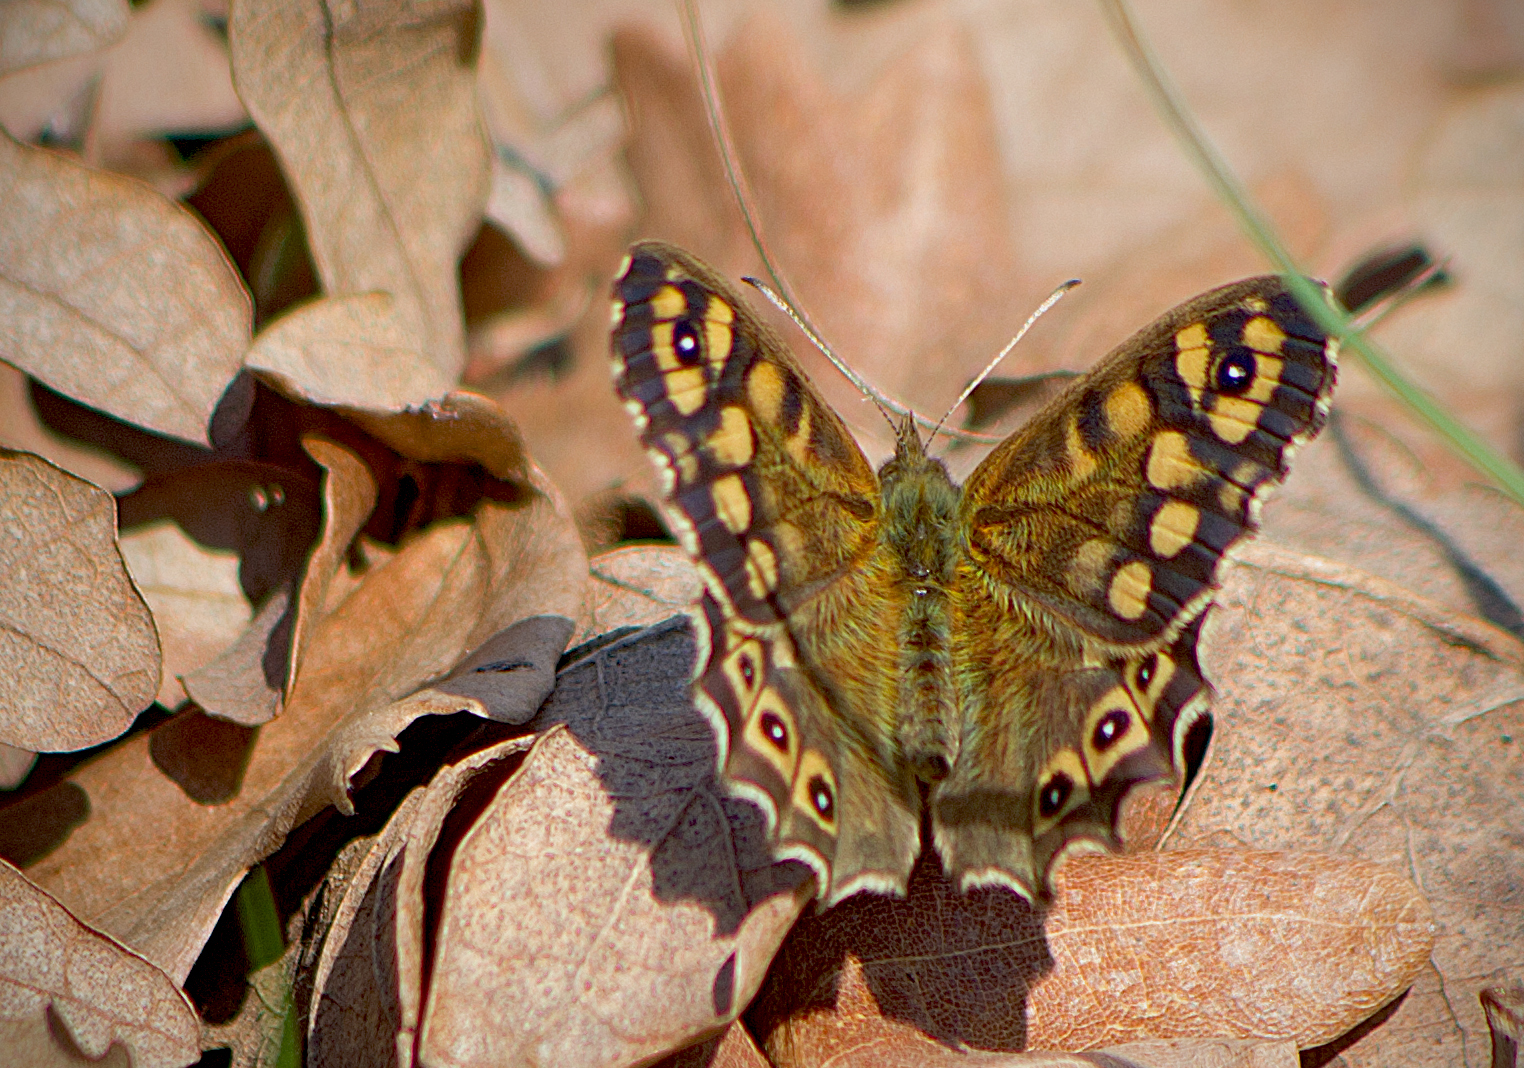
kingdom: Animalia
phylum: Arthropoda
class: Insecta
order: Lepidoptera
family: Nymphalidae
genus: Pararge
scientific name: Pararge aegeria
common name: Speckled wood
